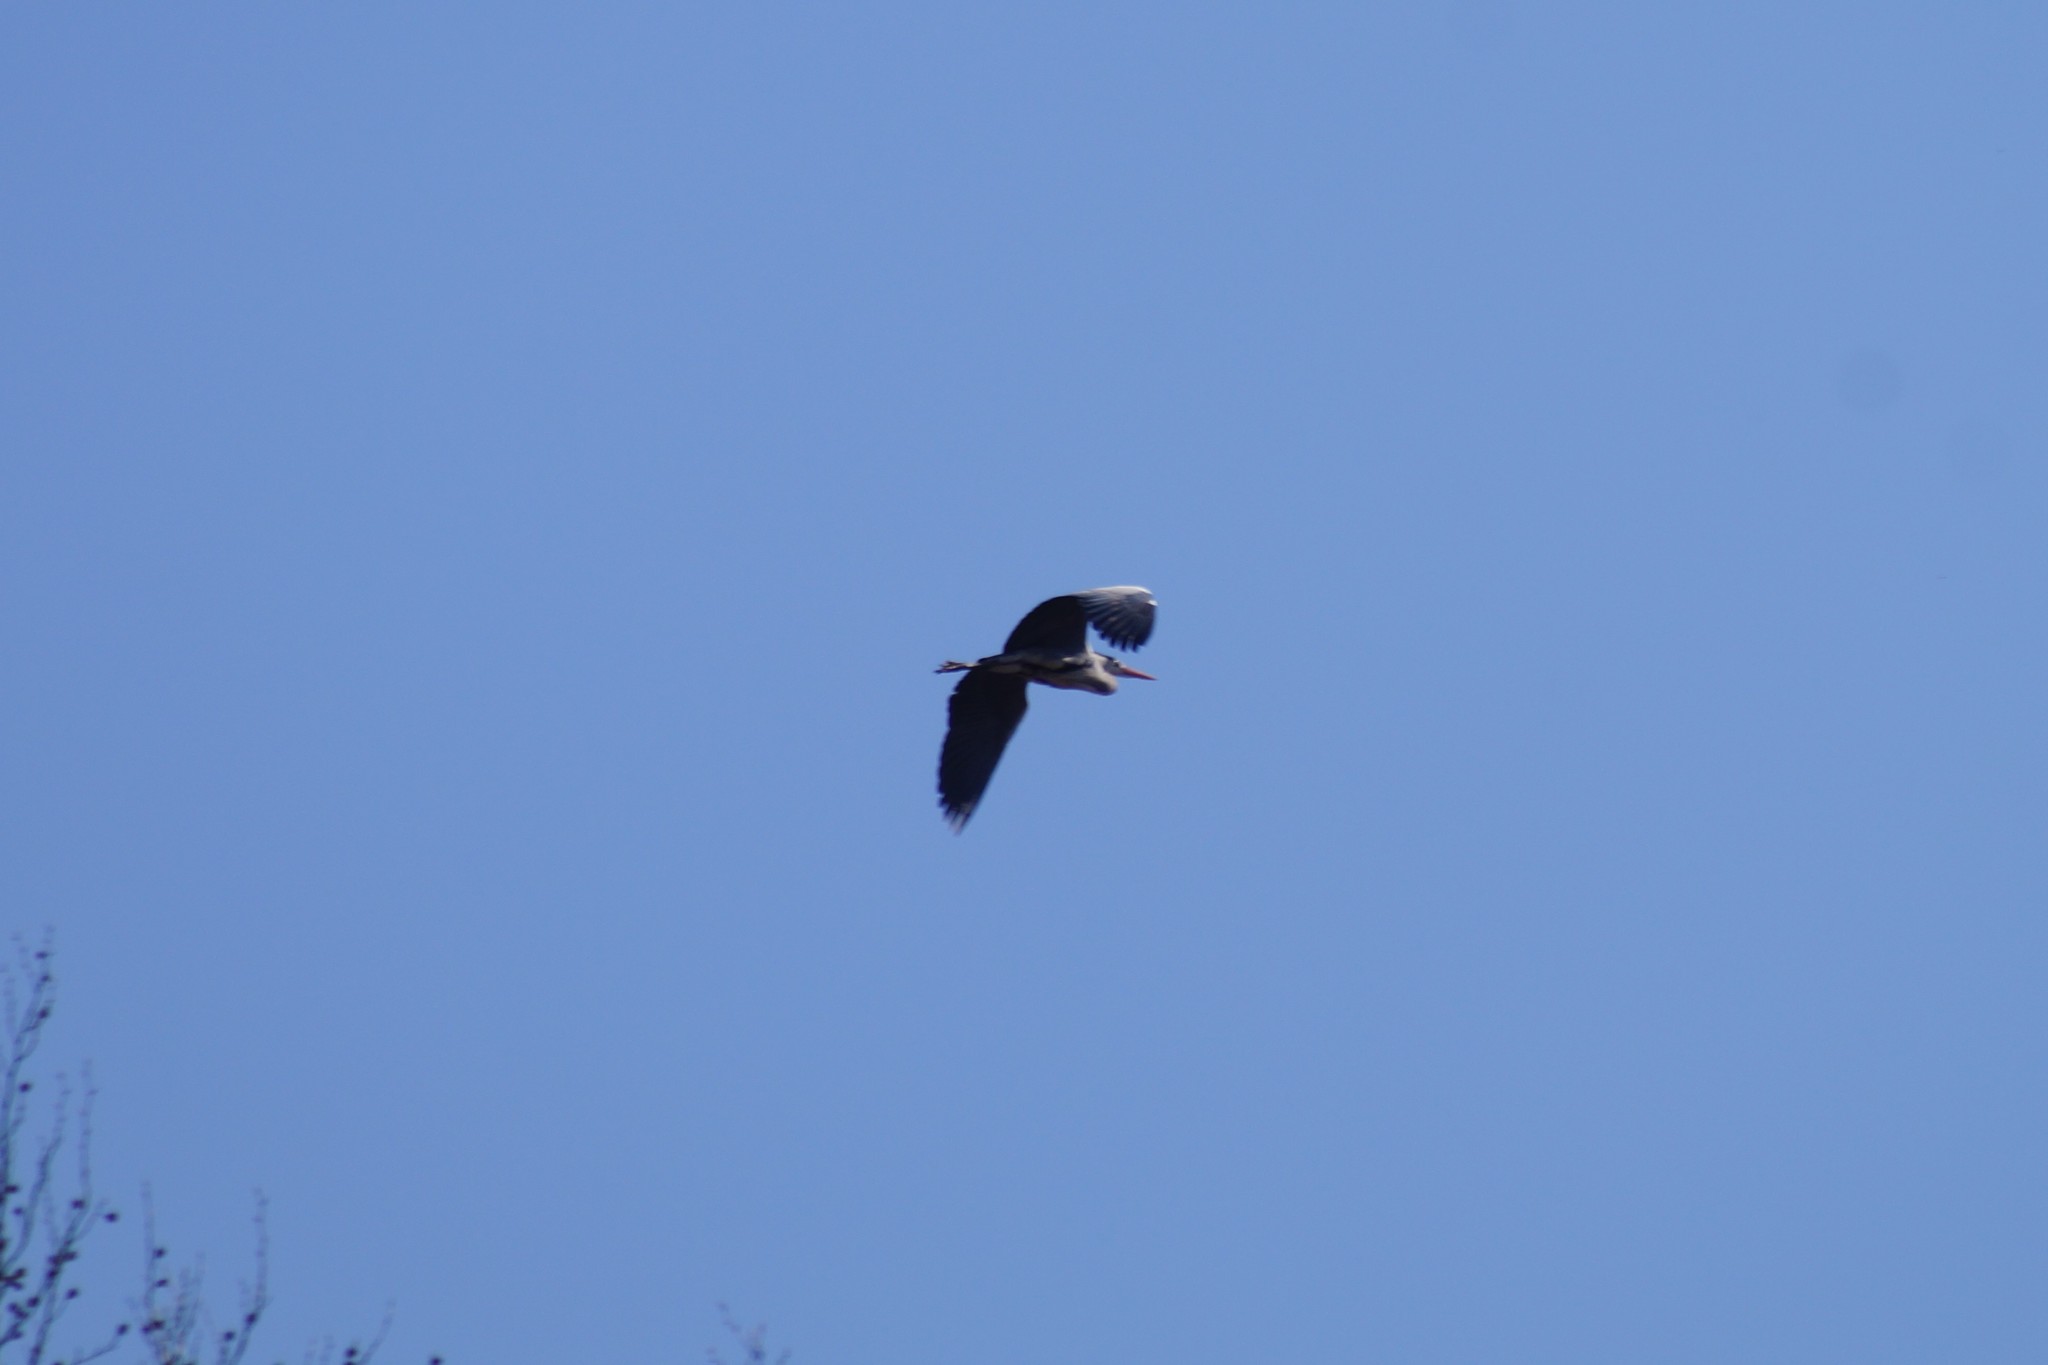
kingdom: Animalia
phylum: Chordata
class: Aves
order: Pelecaniformes
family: Ardeidae
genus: Ardea
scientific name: Ardea cinerea
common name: Grey heron
